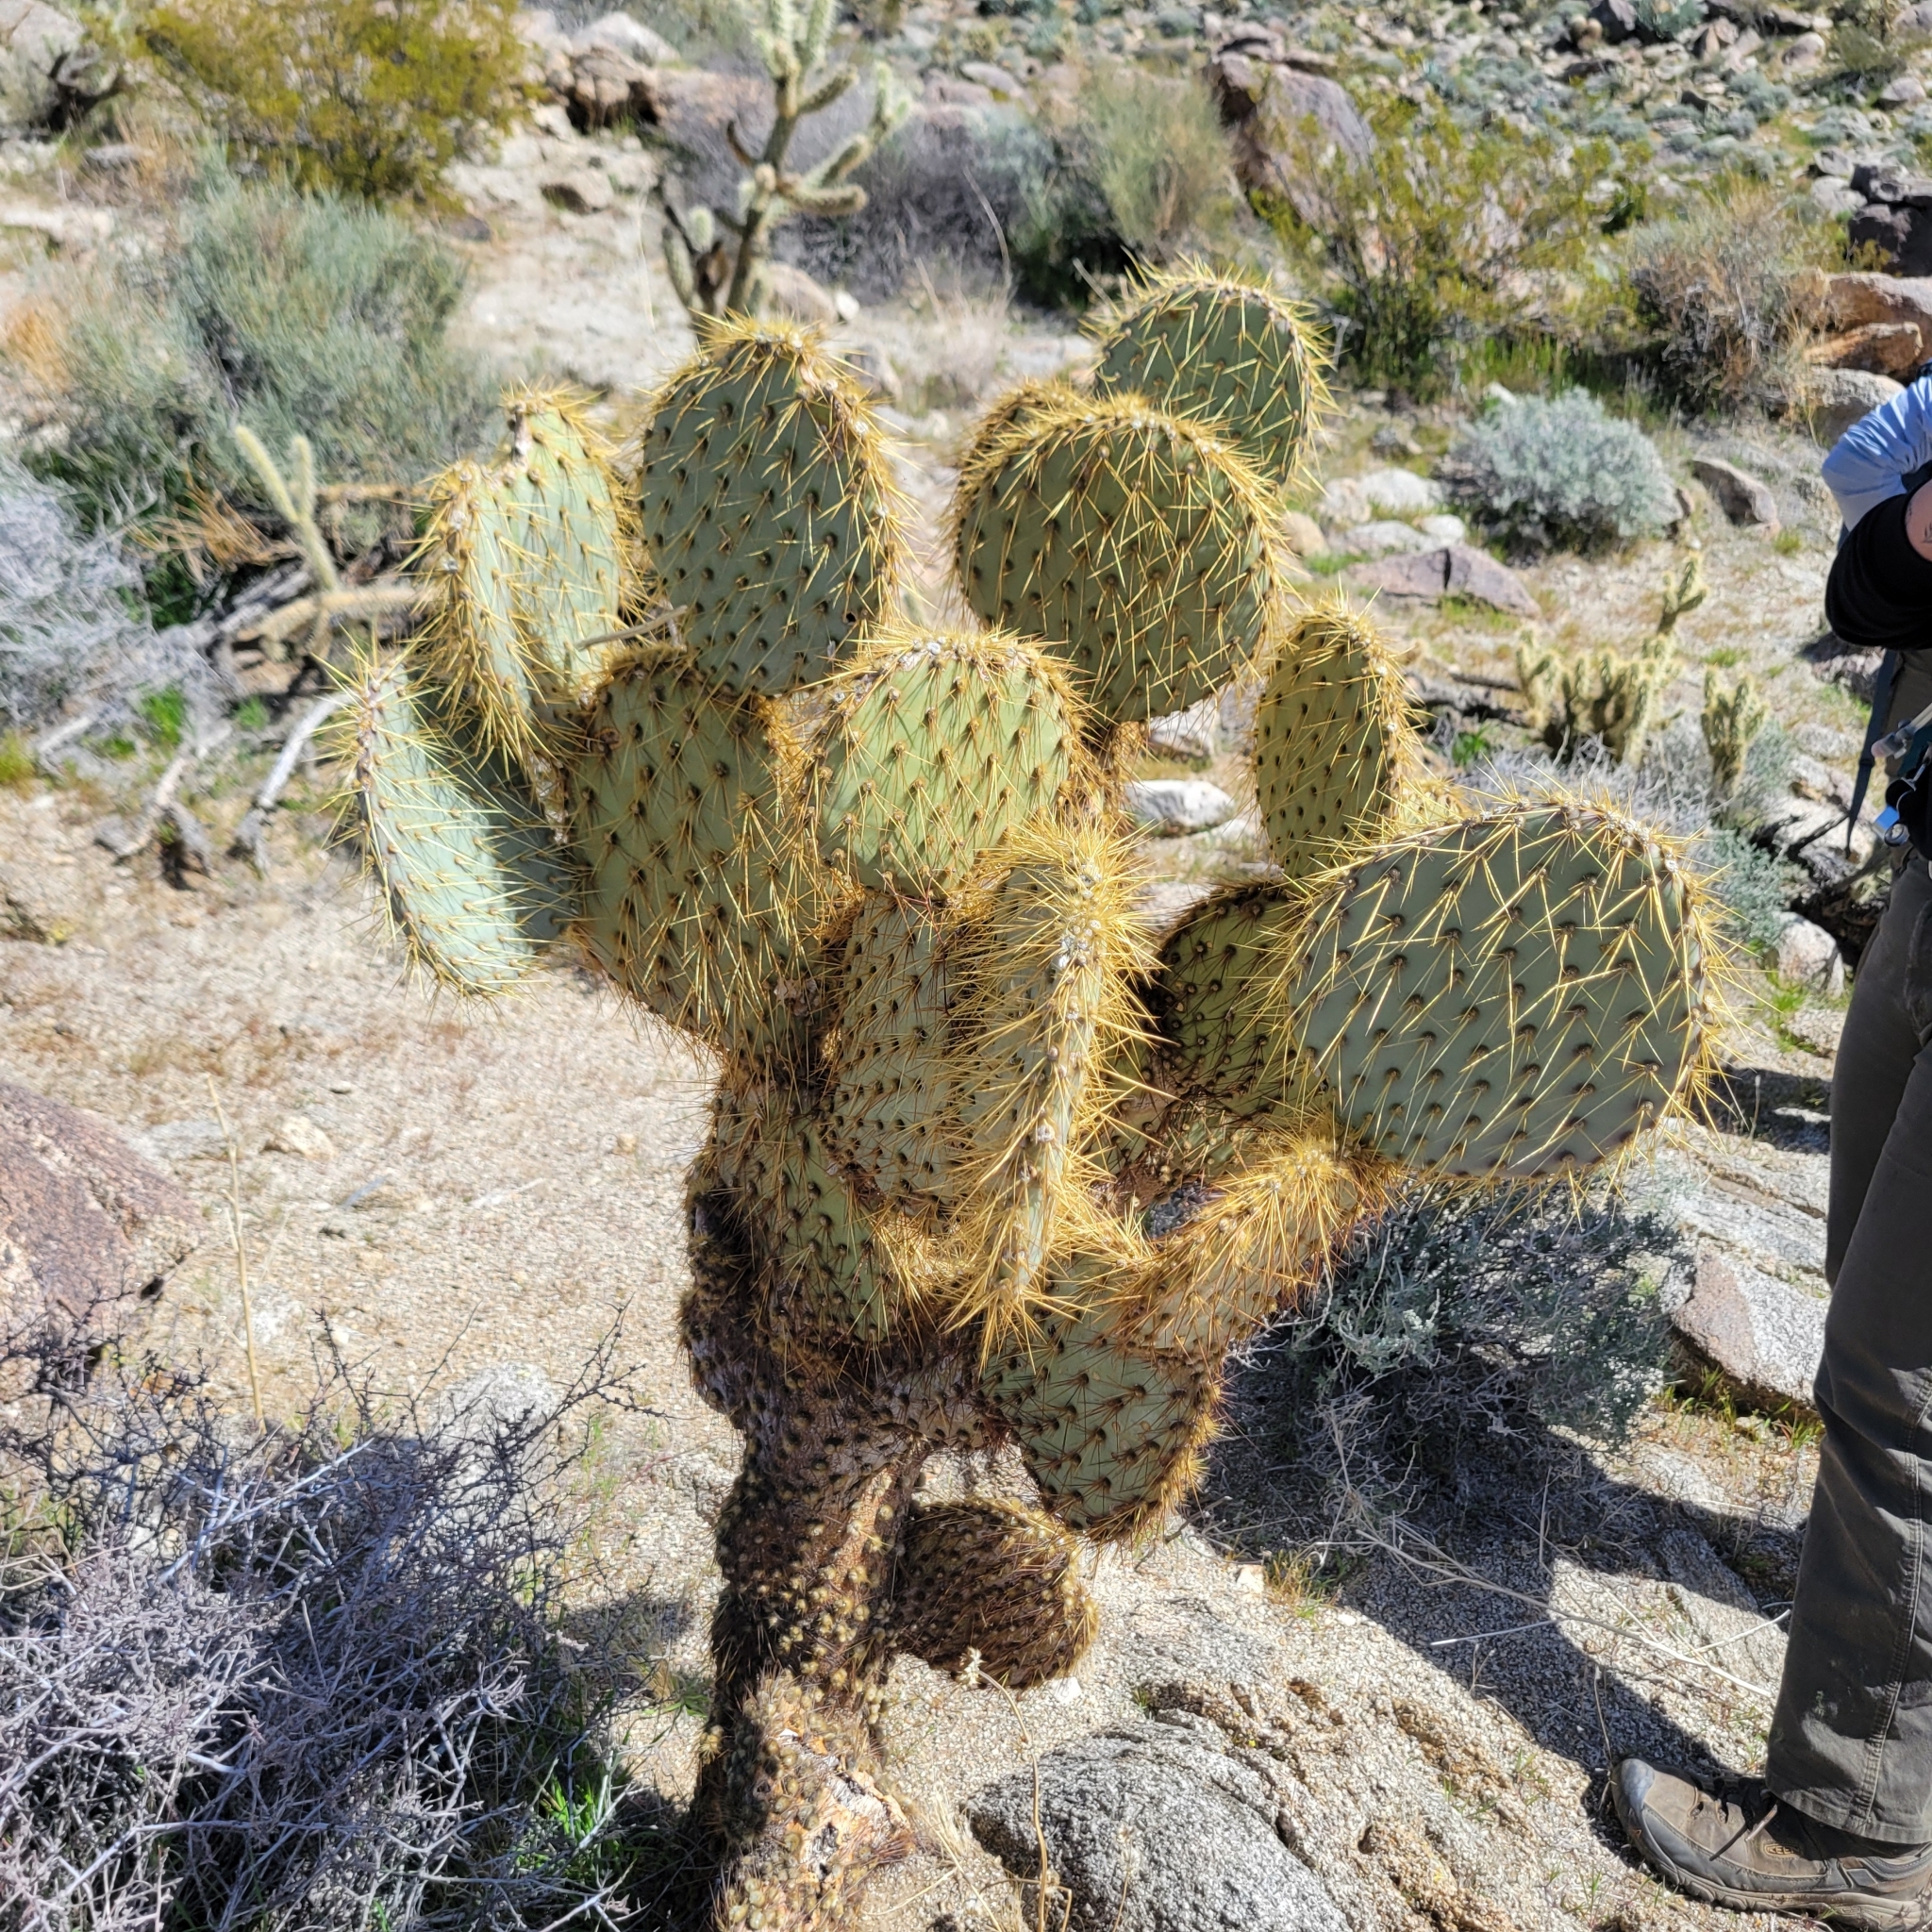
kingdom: Plantae
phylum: Tracheophyta
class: Magnoliopsida
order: Caryophyllales
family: Cactaceae
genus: Opuntia
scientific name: Opuntia chlorotica
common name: Dollar-joint prickly-pear
